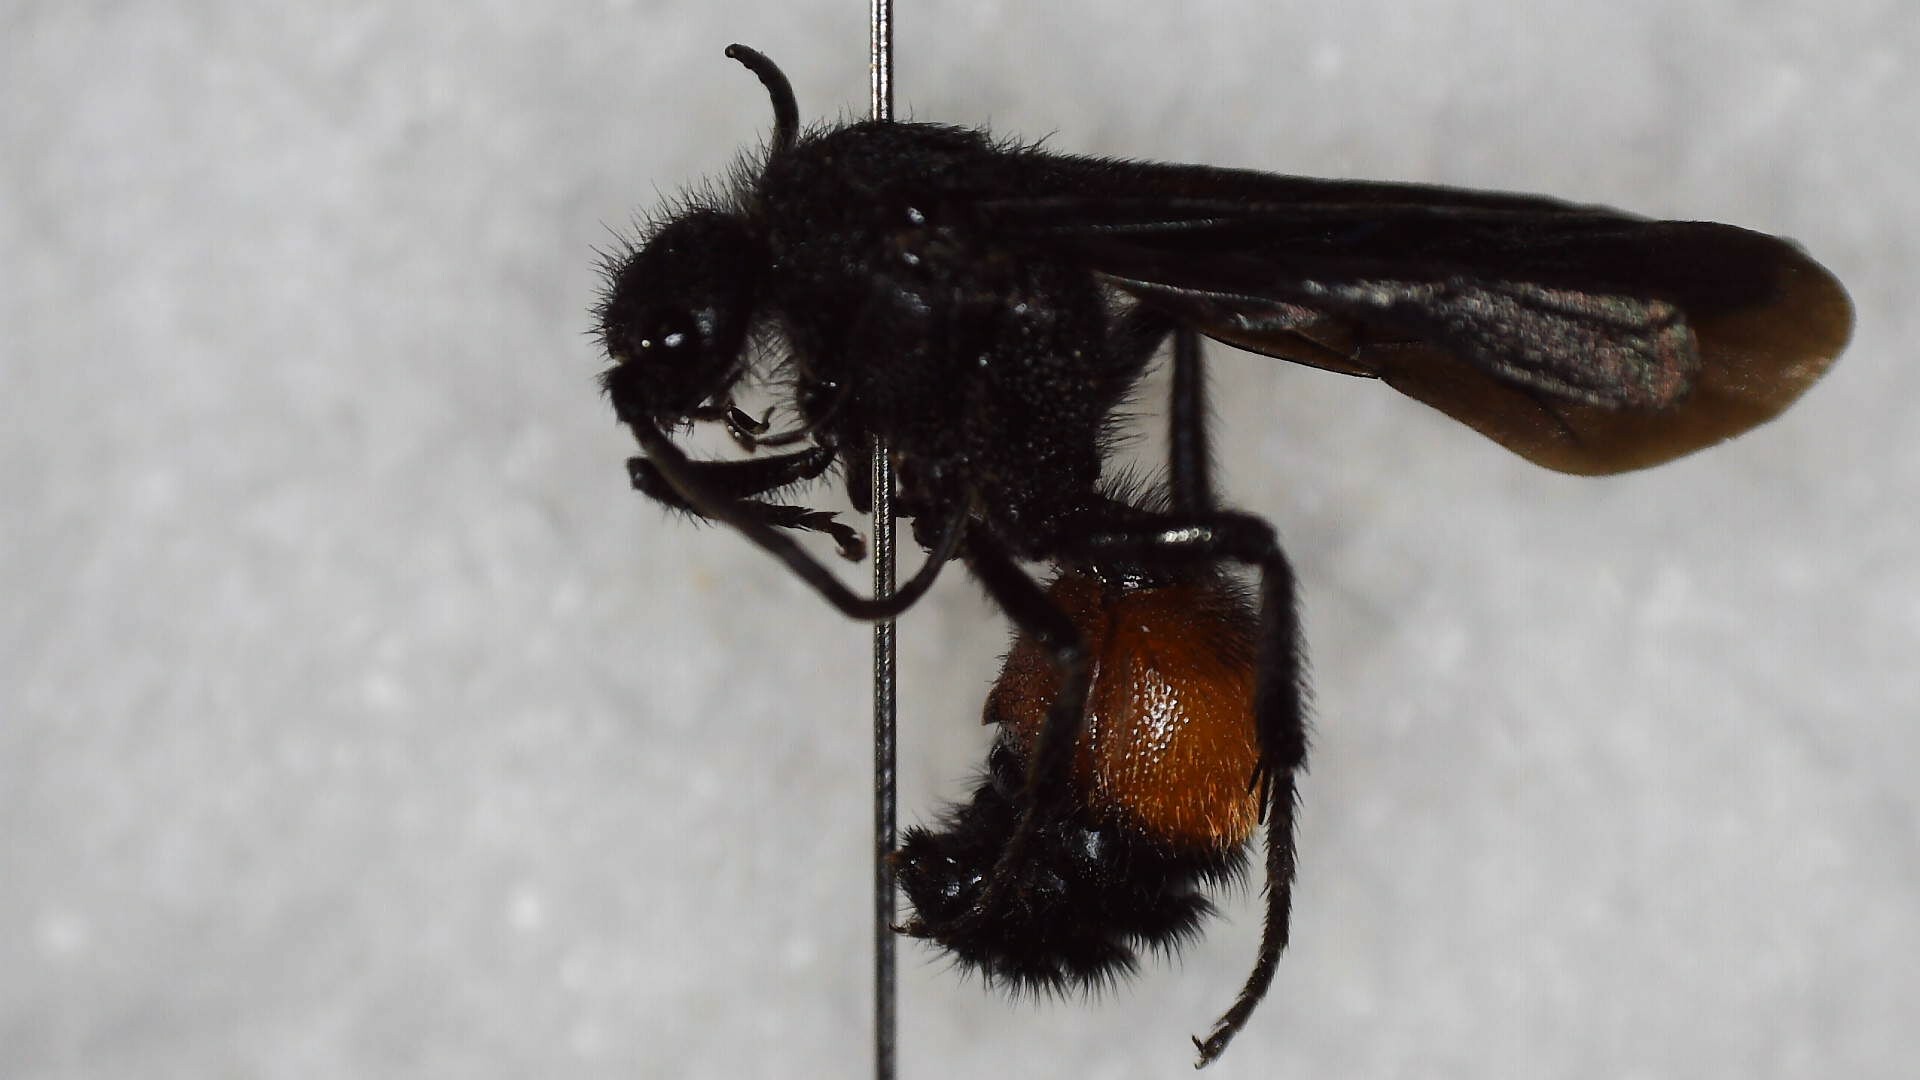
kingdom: Animalia
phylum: Arthropoda
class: Insecta
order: Hymenoptera
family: Mutillidae
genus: Dasymutilla
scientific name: Dasymutilla
